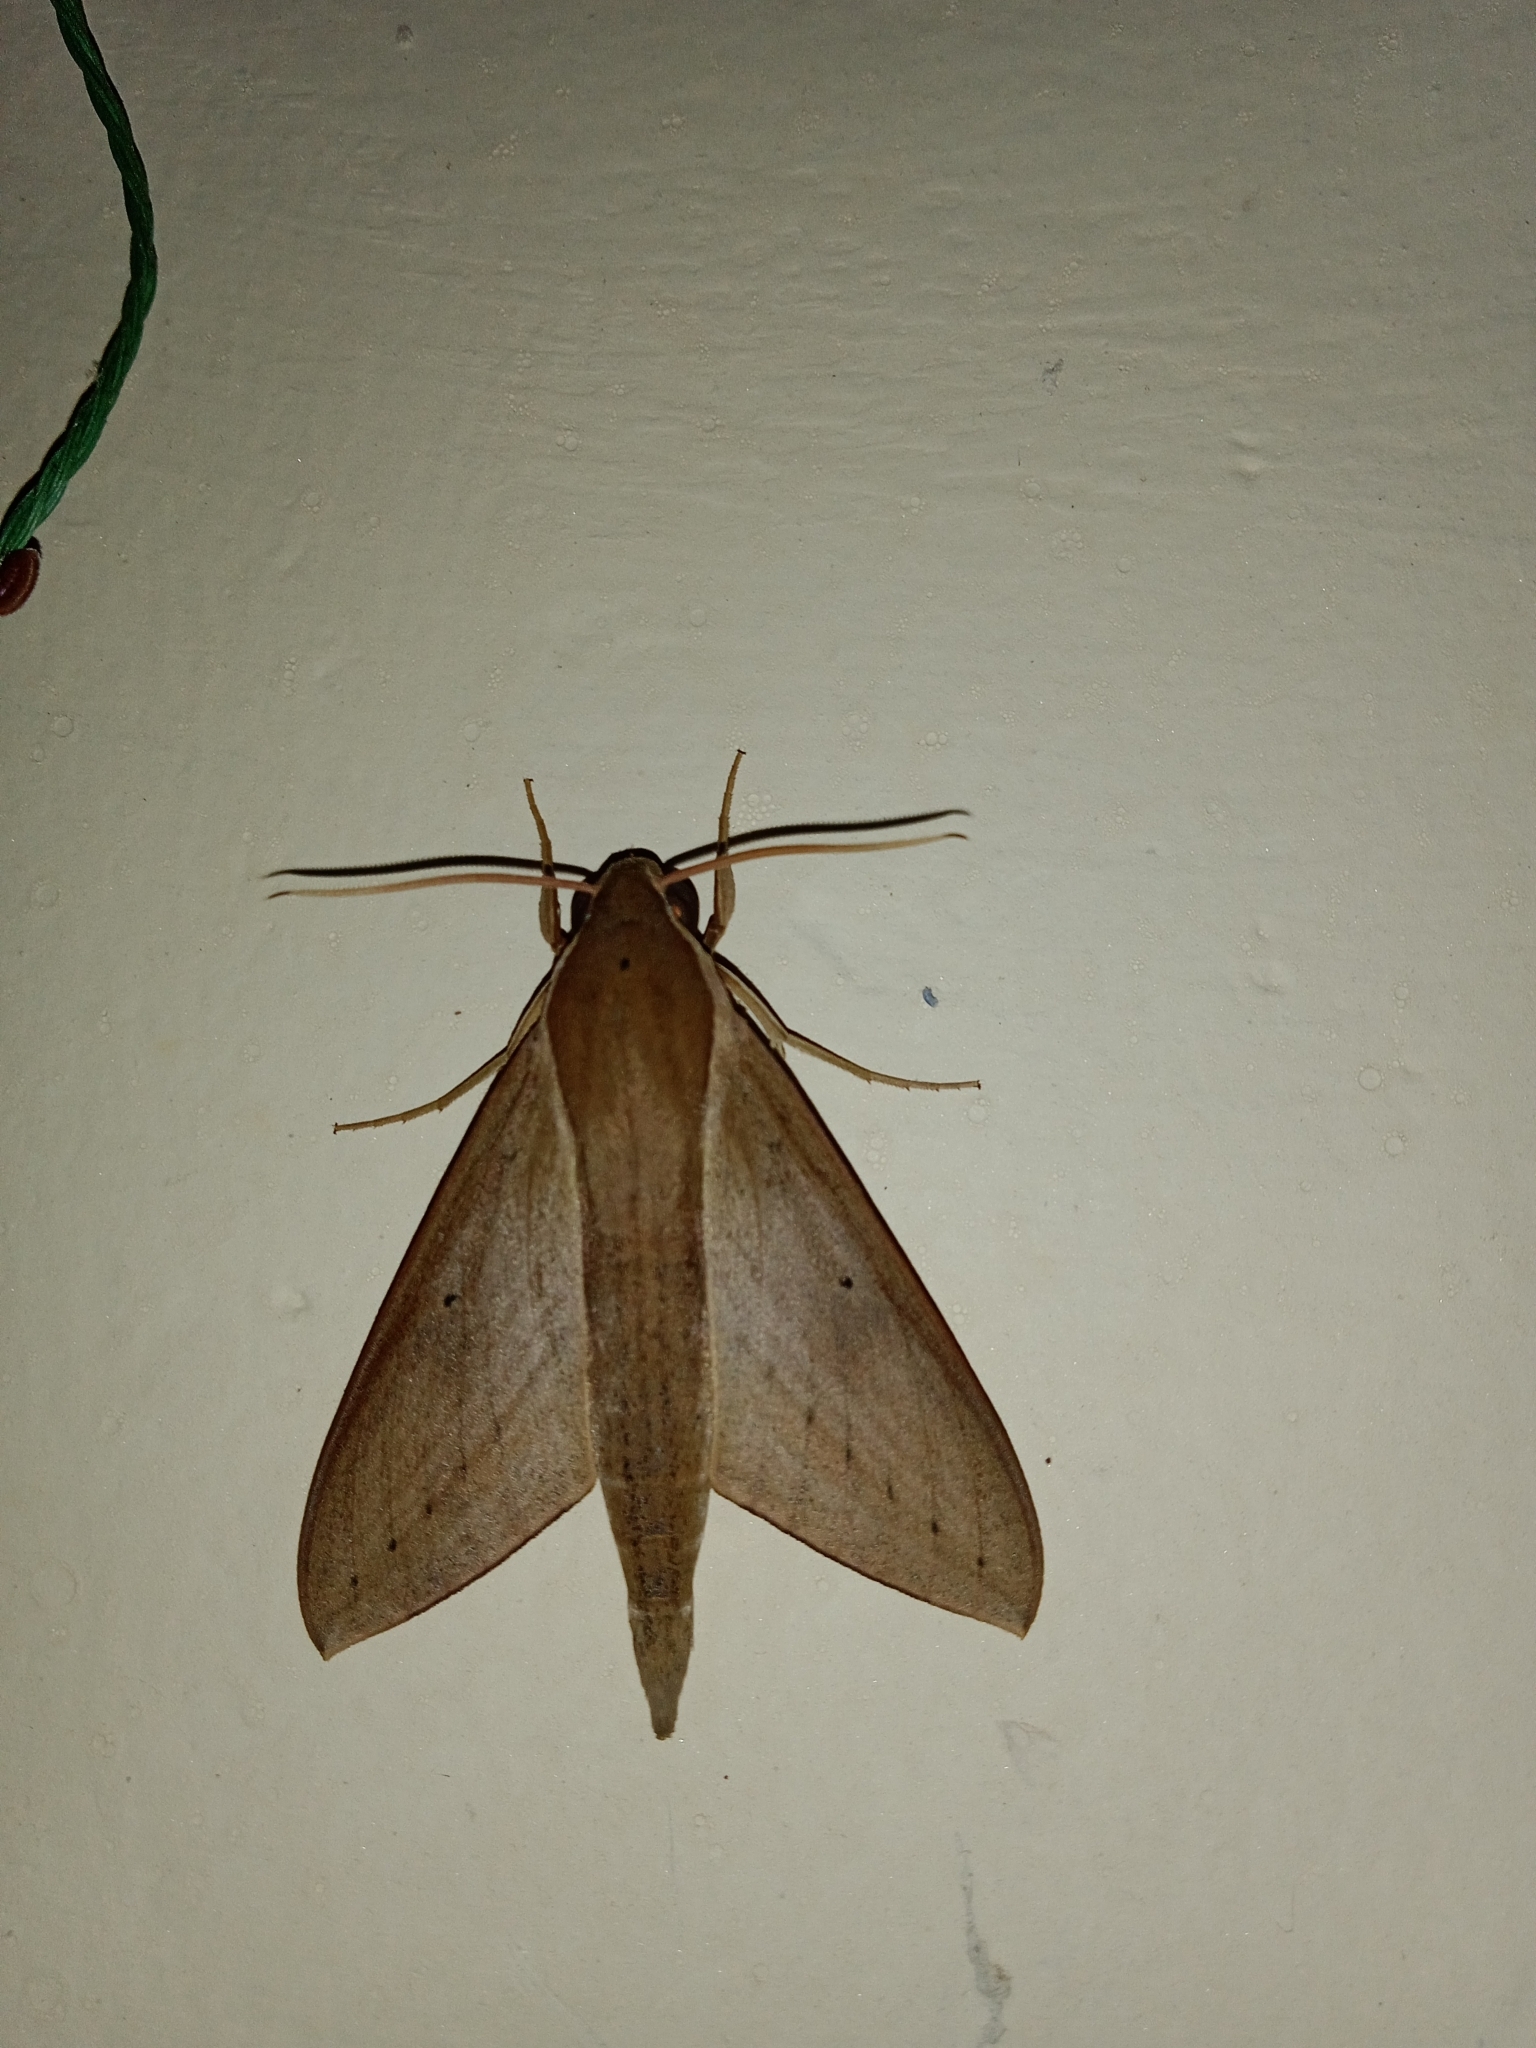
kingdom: Animalia
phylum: Arthropoda
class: Insecta
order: Lepidoptera
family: Sphingidae
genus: Theretra
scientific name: Theretra rhesus
